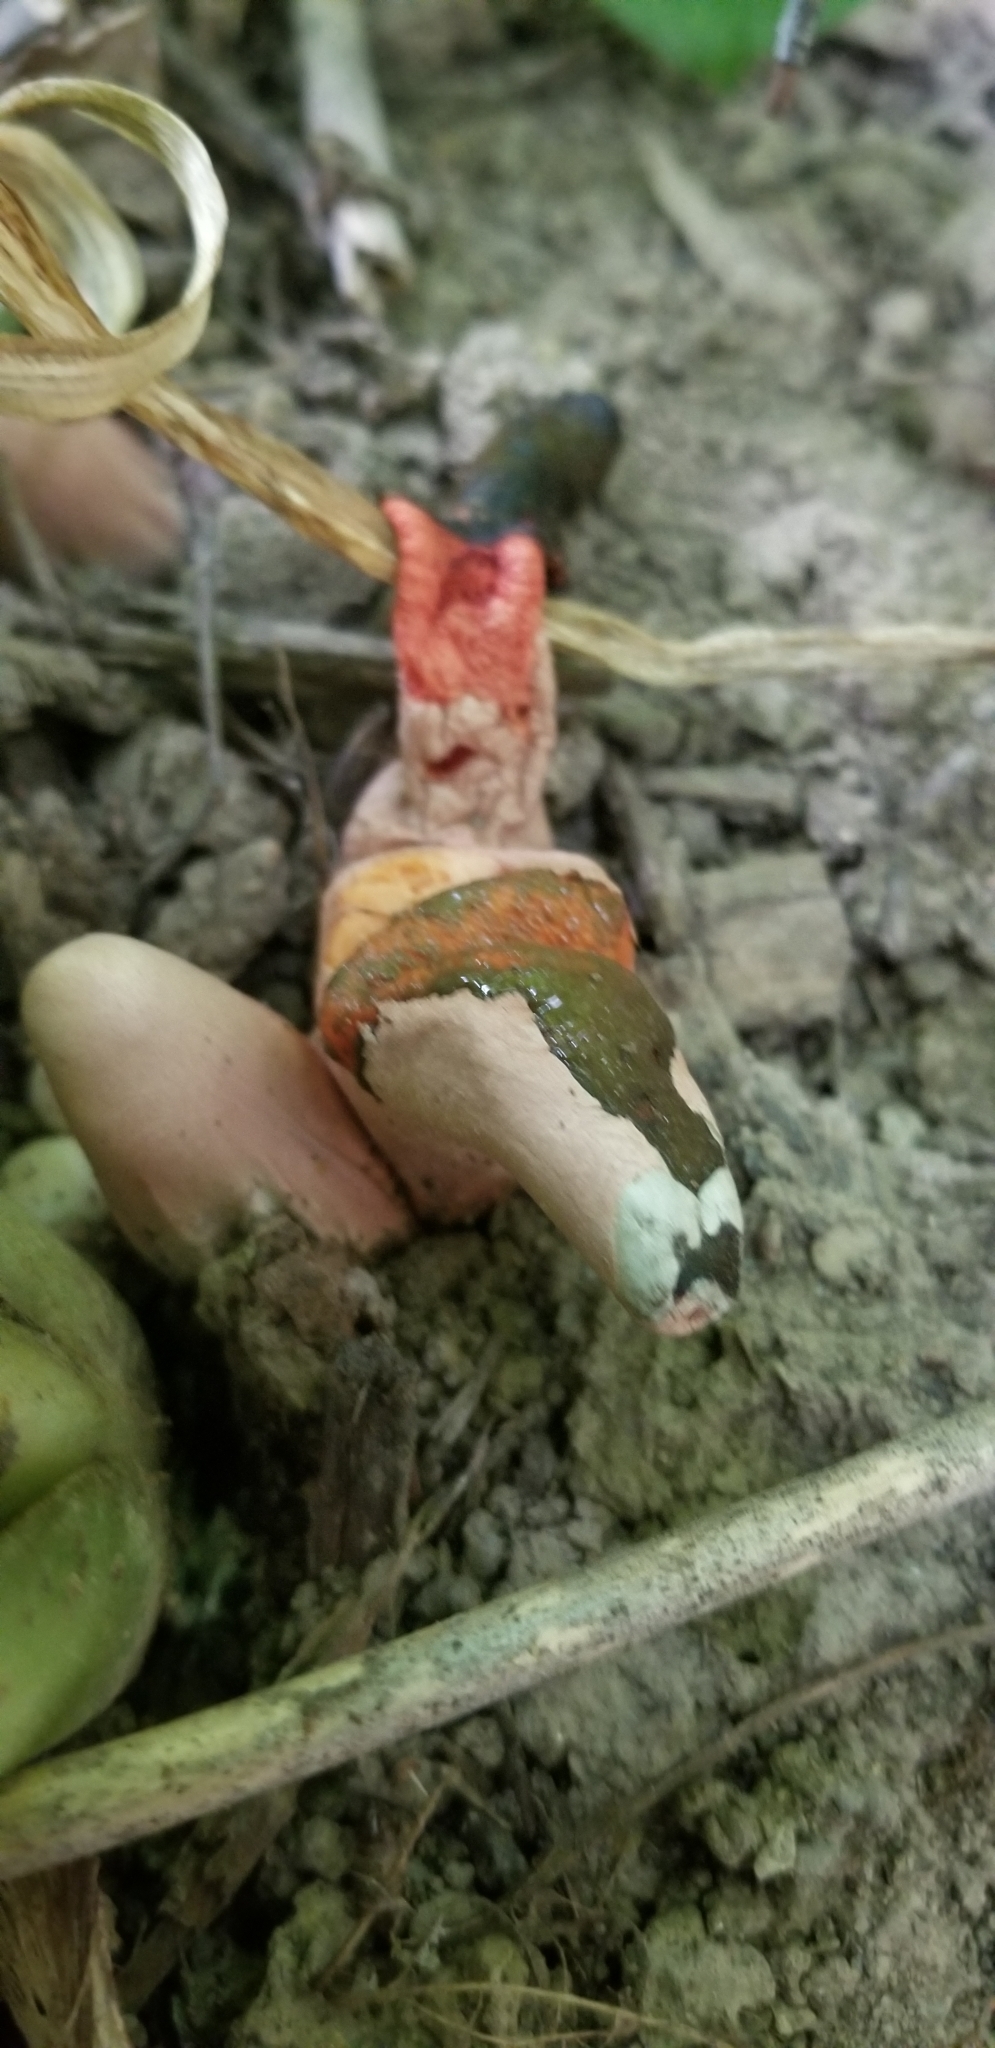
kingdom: Fungi
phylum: Basidiomycota
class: Agaricomycetes
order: Phallales
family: Phallaceae
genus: Mutinus
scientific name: Mutinus elegans
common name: Devil's dipstick
